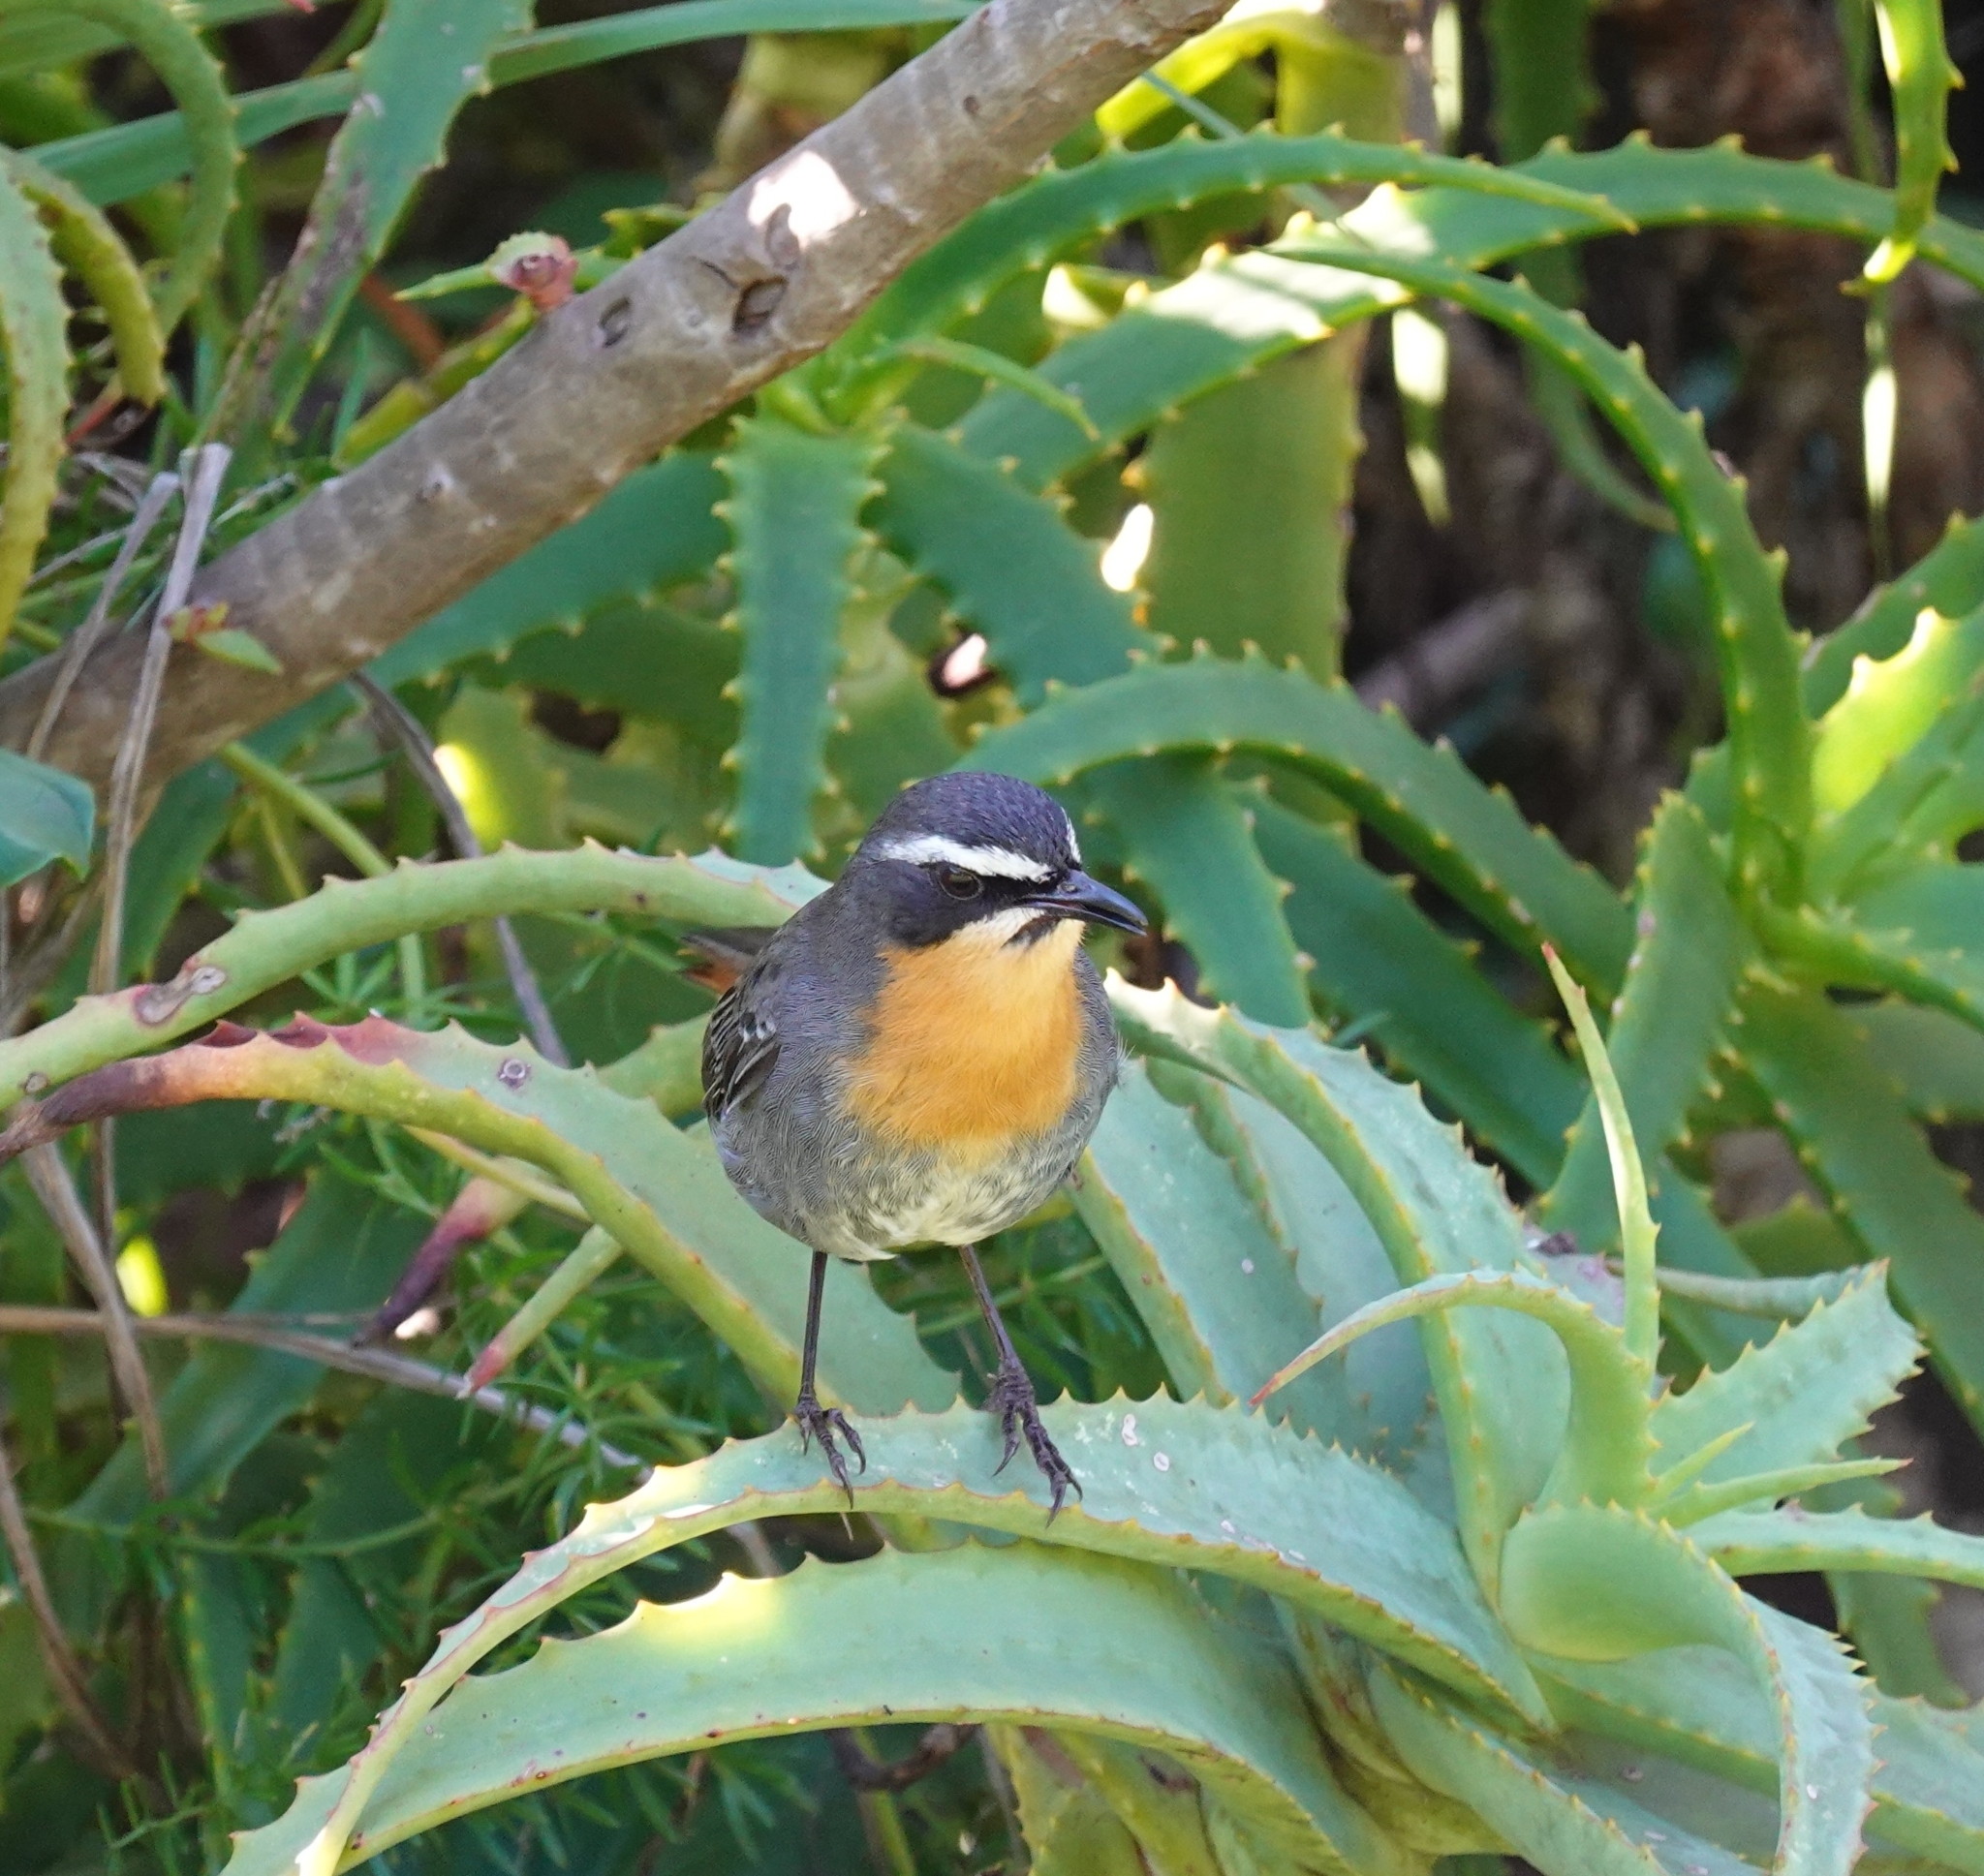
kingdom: Animalia
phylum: Chordata
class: Aves
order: Passeriformes
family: Muscicapidae
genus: Cossypha
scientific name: Cossypha caffra
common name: Cape robin-chat
